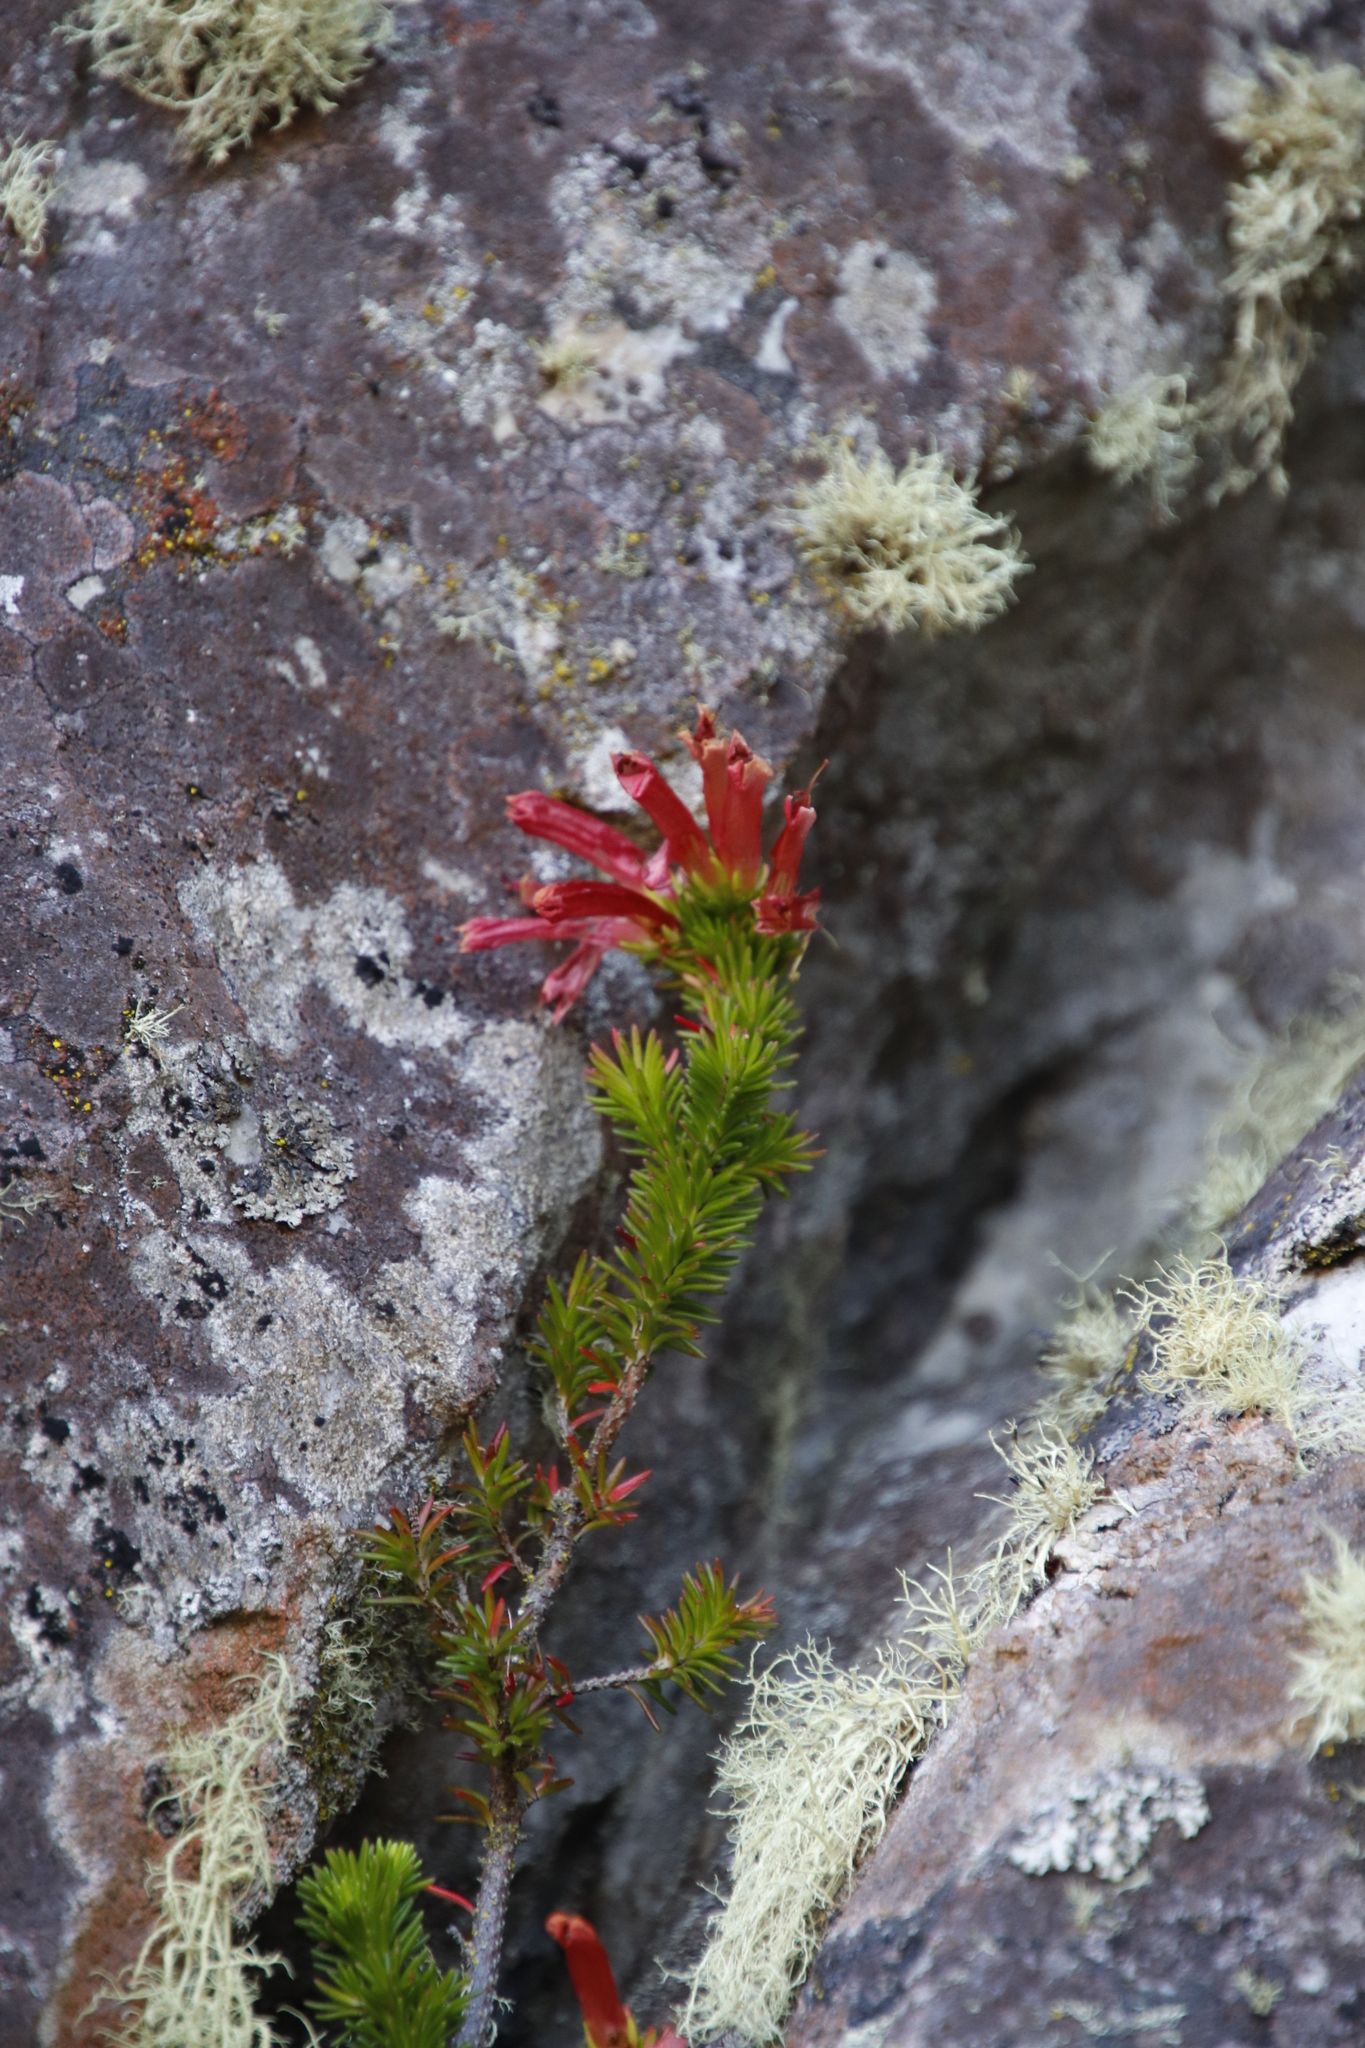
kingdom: Plantae
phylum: Tracheophyta
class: Magnoliopsida
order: Ericales
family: Ericaceae
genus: Erica
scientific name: Erica annectens
